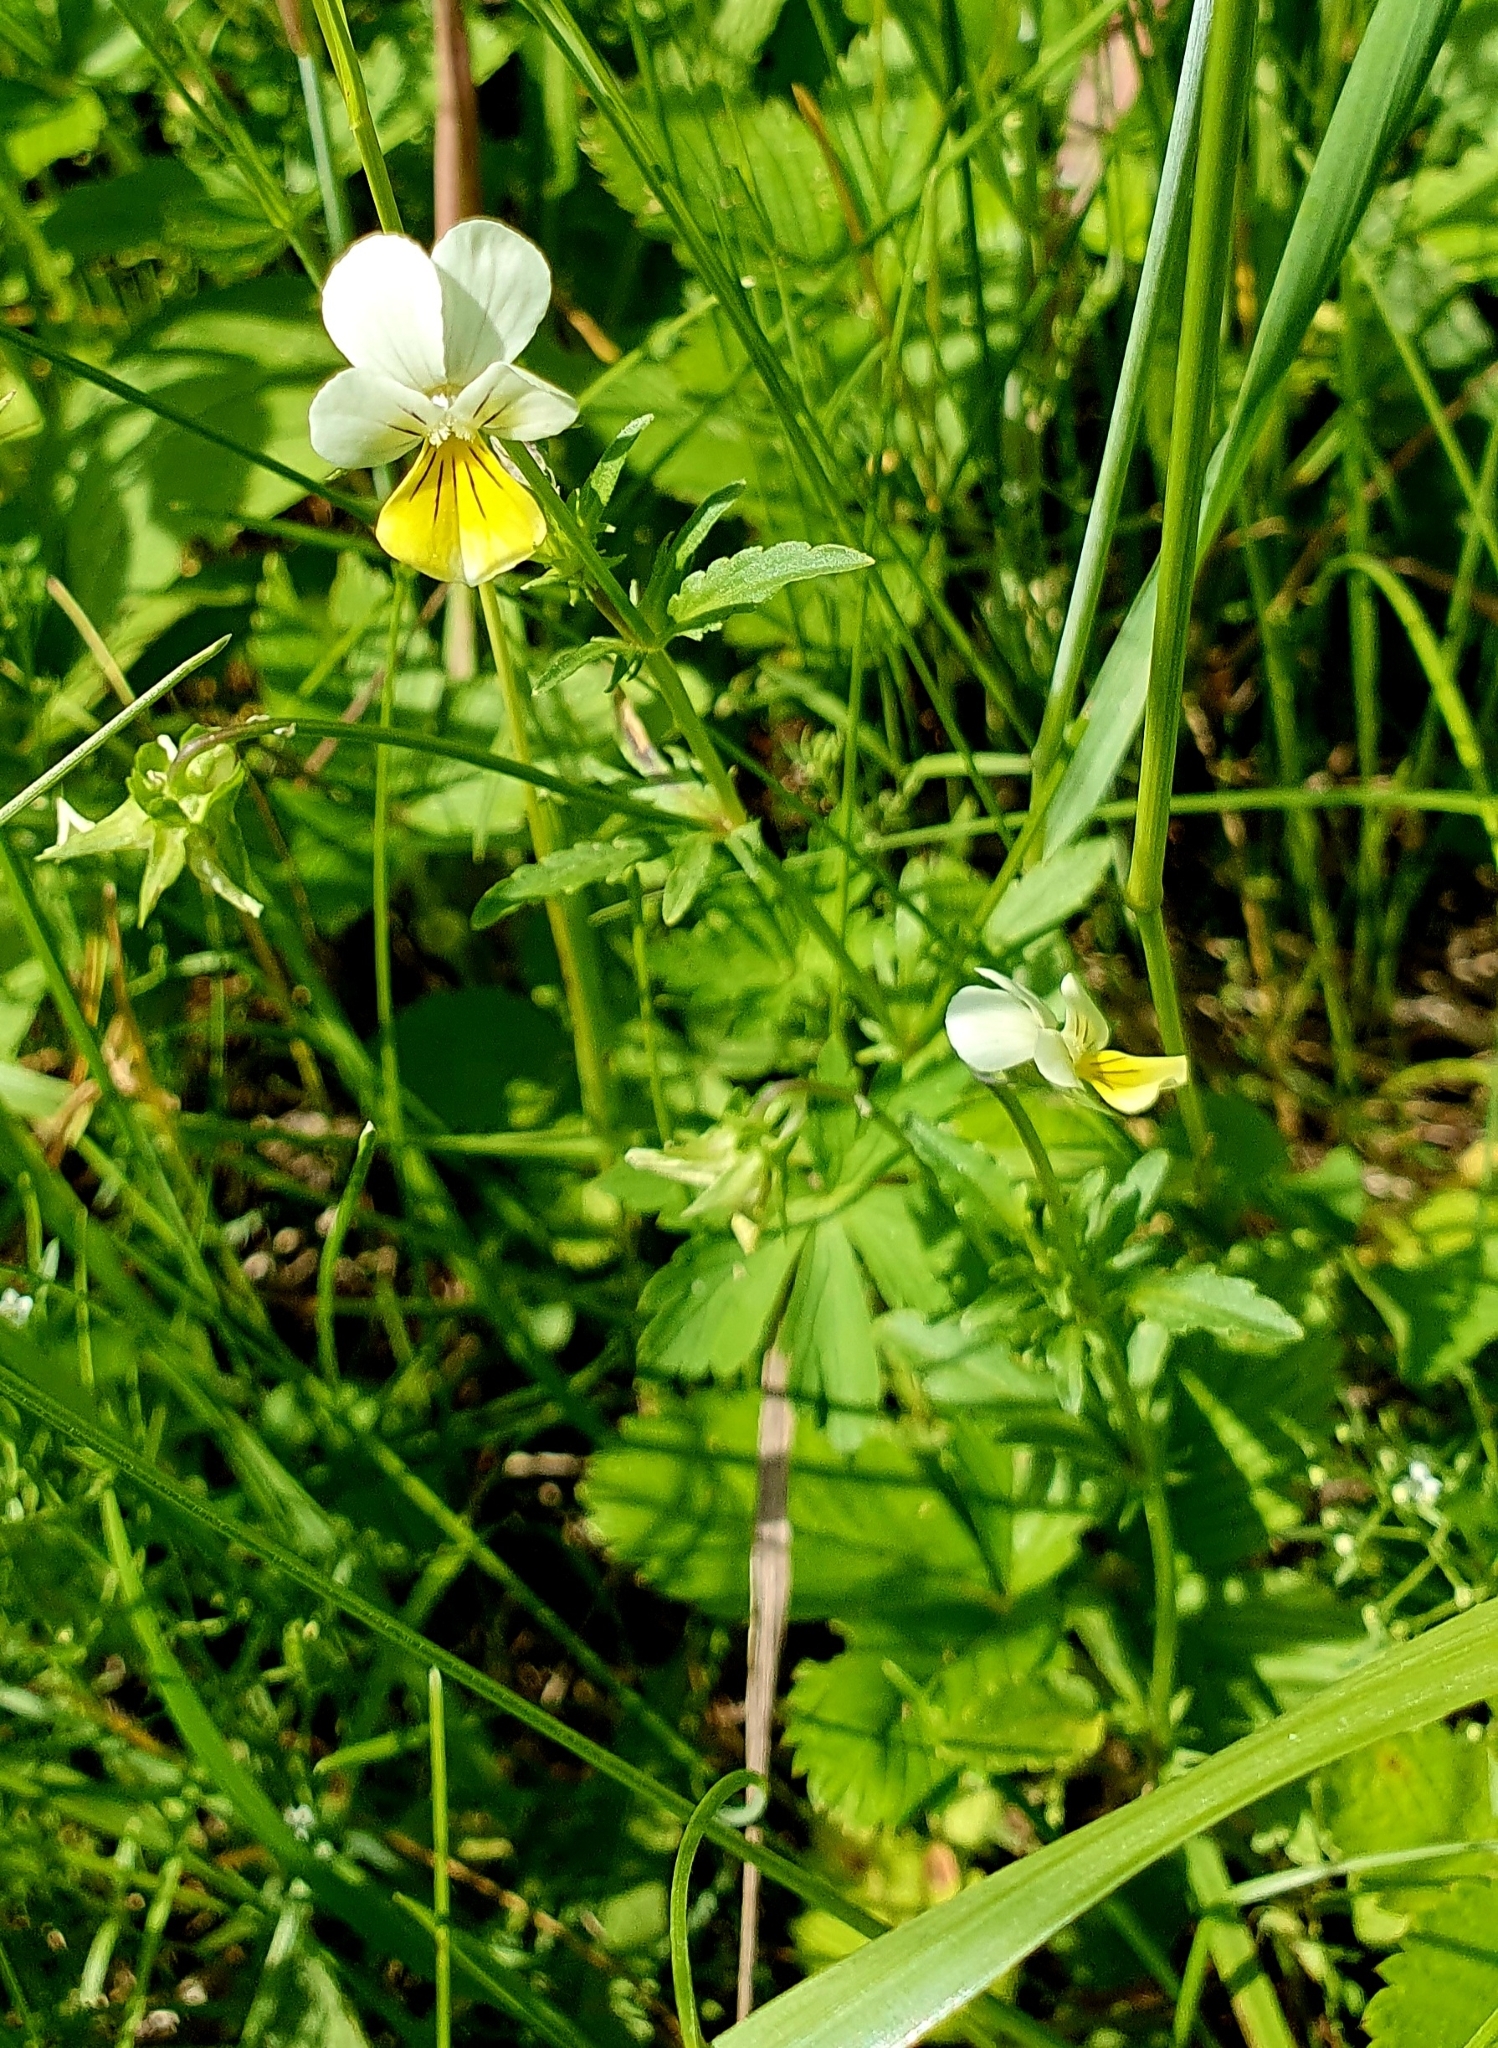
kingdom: Plantae
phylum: Tracheophyta
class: Magnoliopsida
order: Malpighiales
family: Violaceae
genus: Viola
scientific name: Viola arvensis
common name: Field pansy
